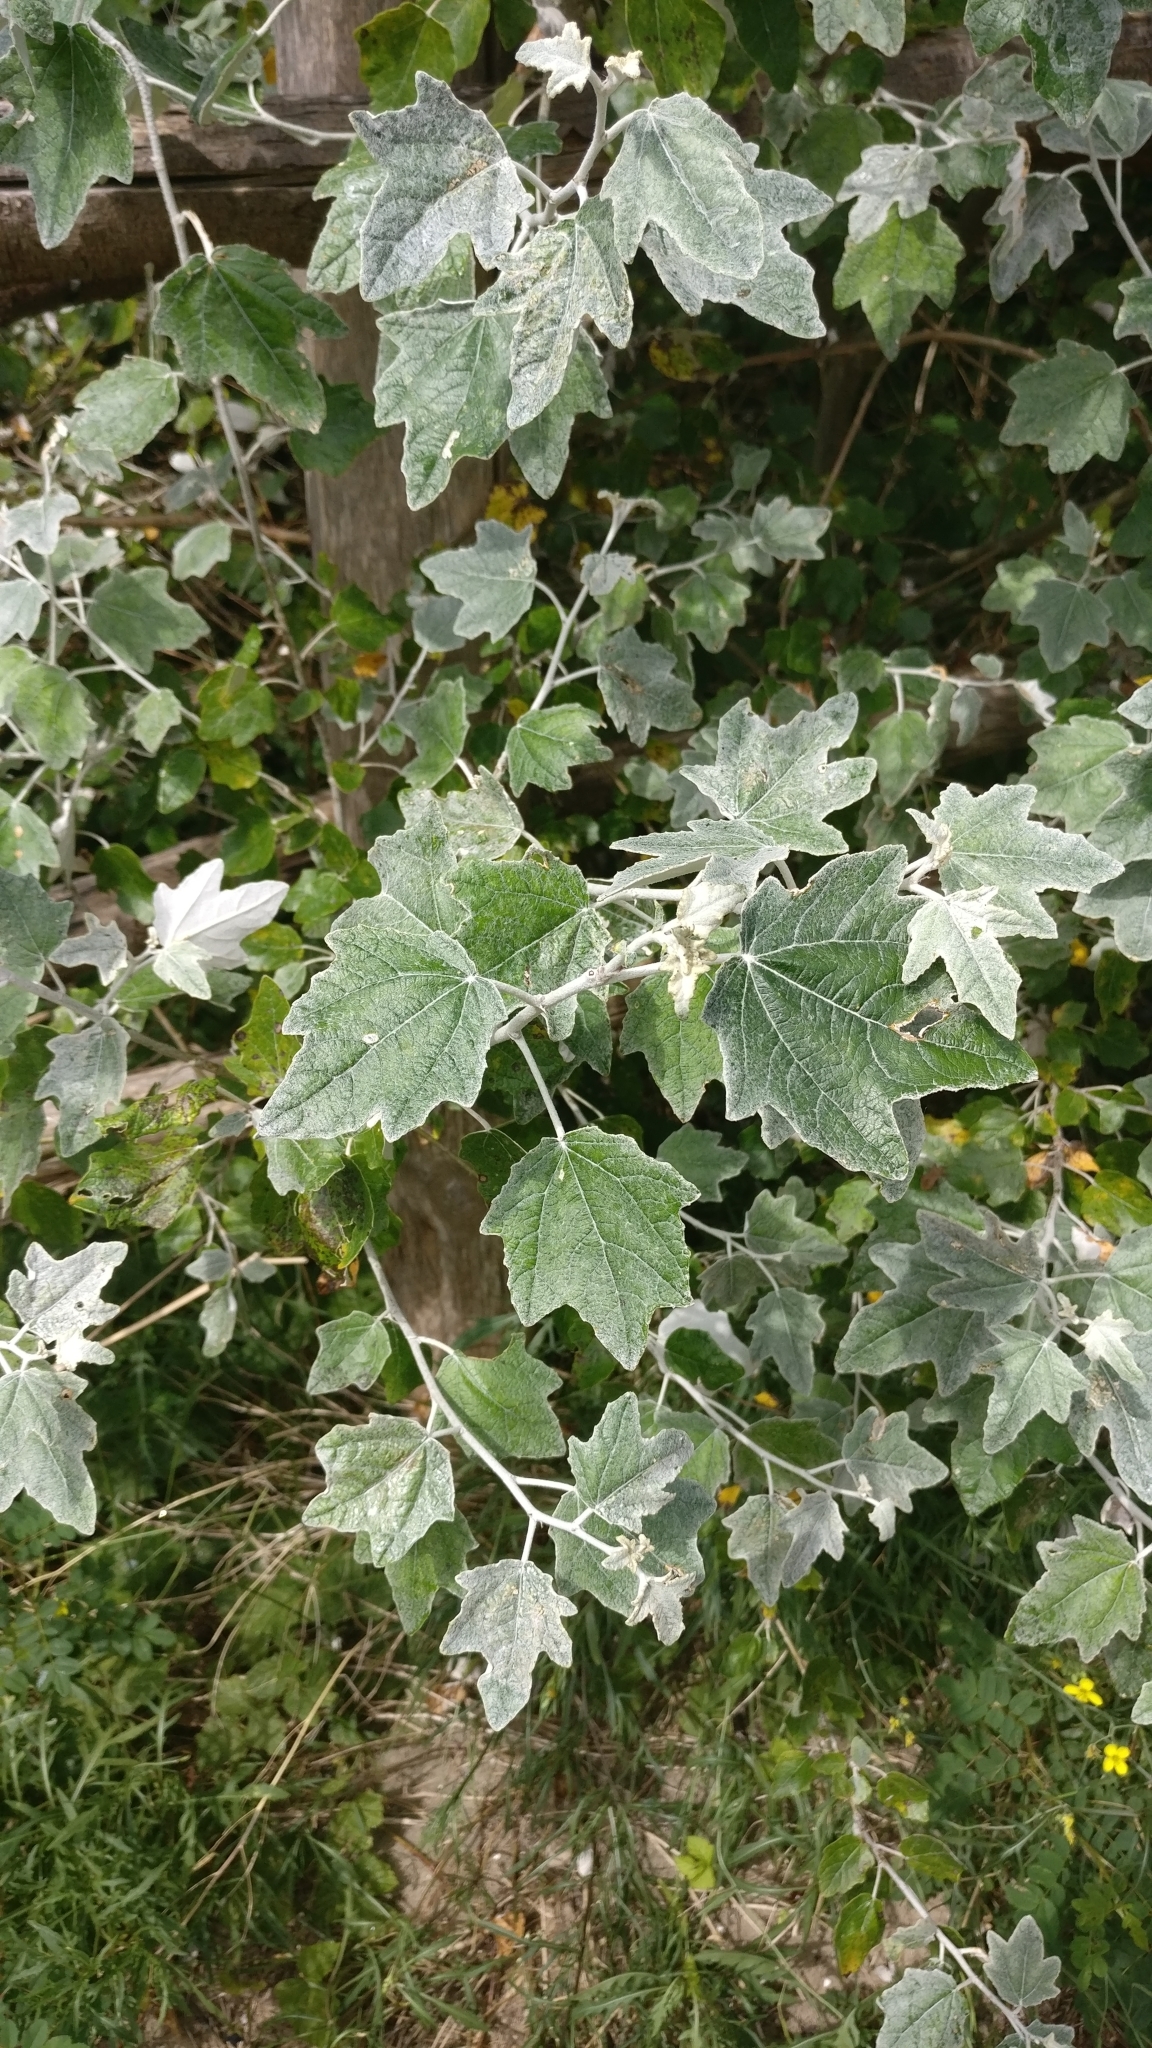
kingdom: Plantae
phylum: Tracheophyta
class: Magnoliopsida
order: Malpighiales
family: Salicaceae
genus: Populus
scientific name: Populus alba
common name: White poplar
